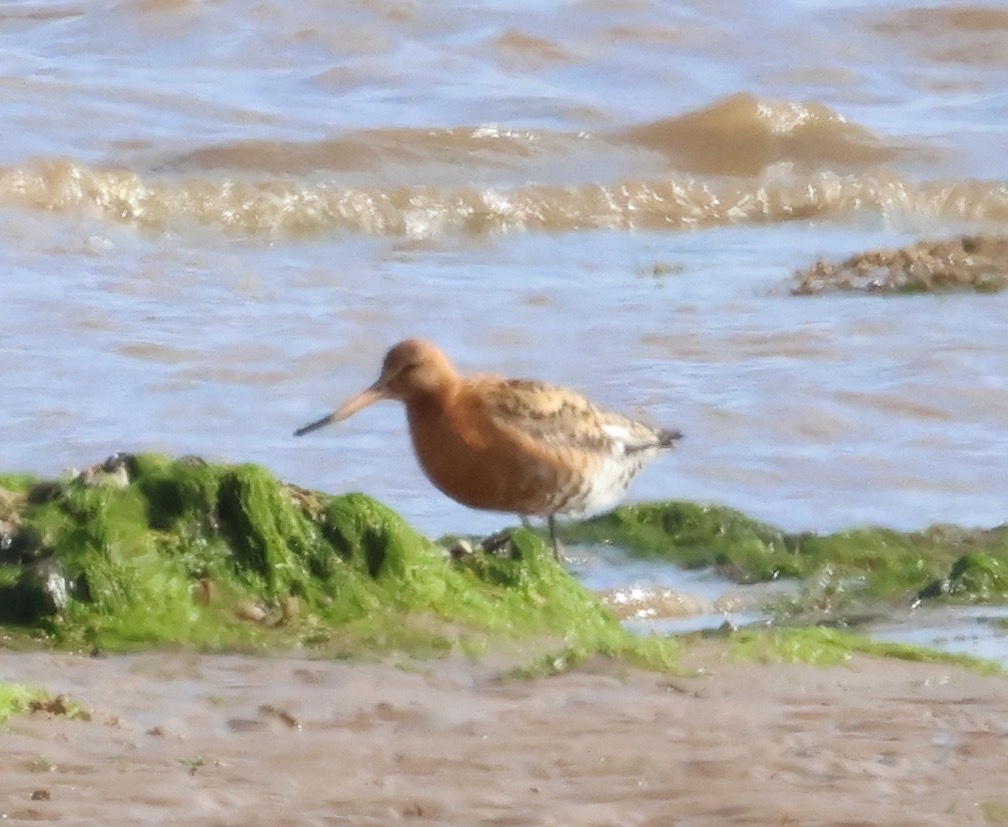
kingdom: Animalia
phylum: Chordata
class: Aves
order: Charadriiformes
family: Scolopacidae
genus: Limosa
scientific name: Limosa limosa
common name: Black-tailed godwit
